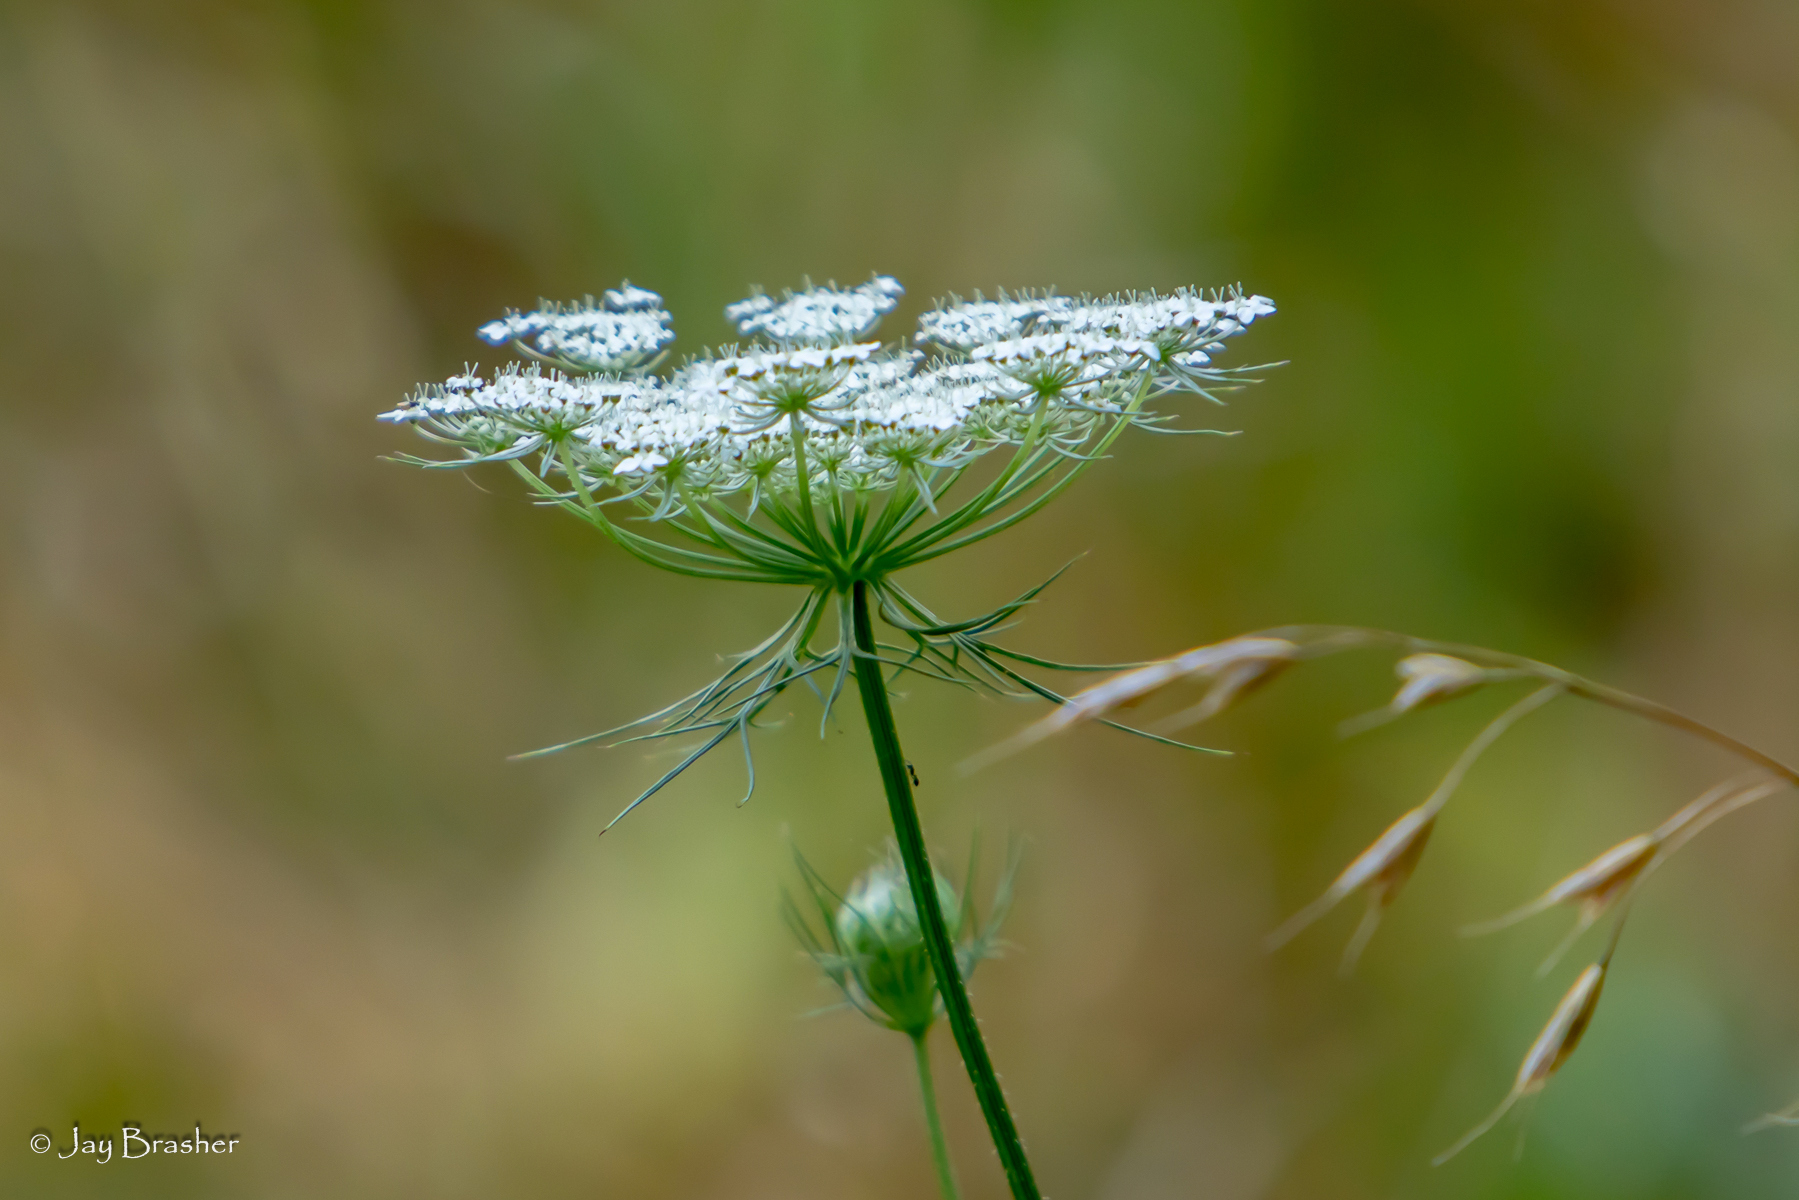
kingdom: Plantae
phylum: Tracheophyta
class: Magnoliopsida
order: Apiales
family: Apiaceae
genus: Daucus
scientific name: Daucus carota
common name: Wild carrot
